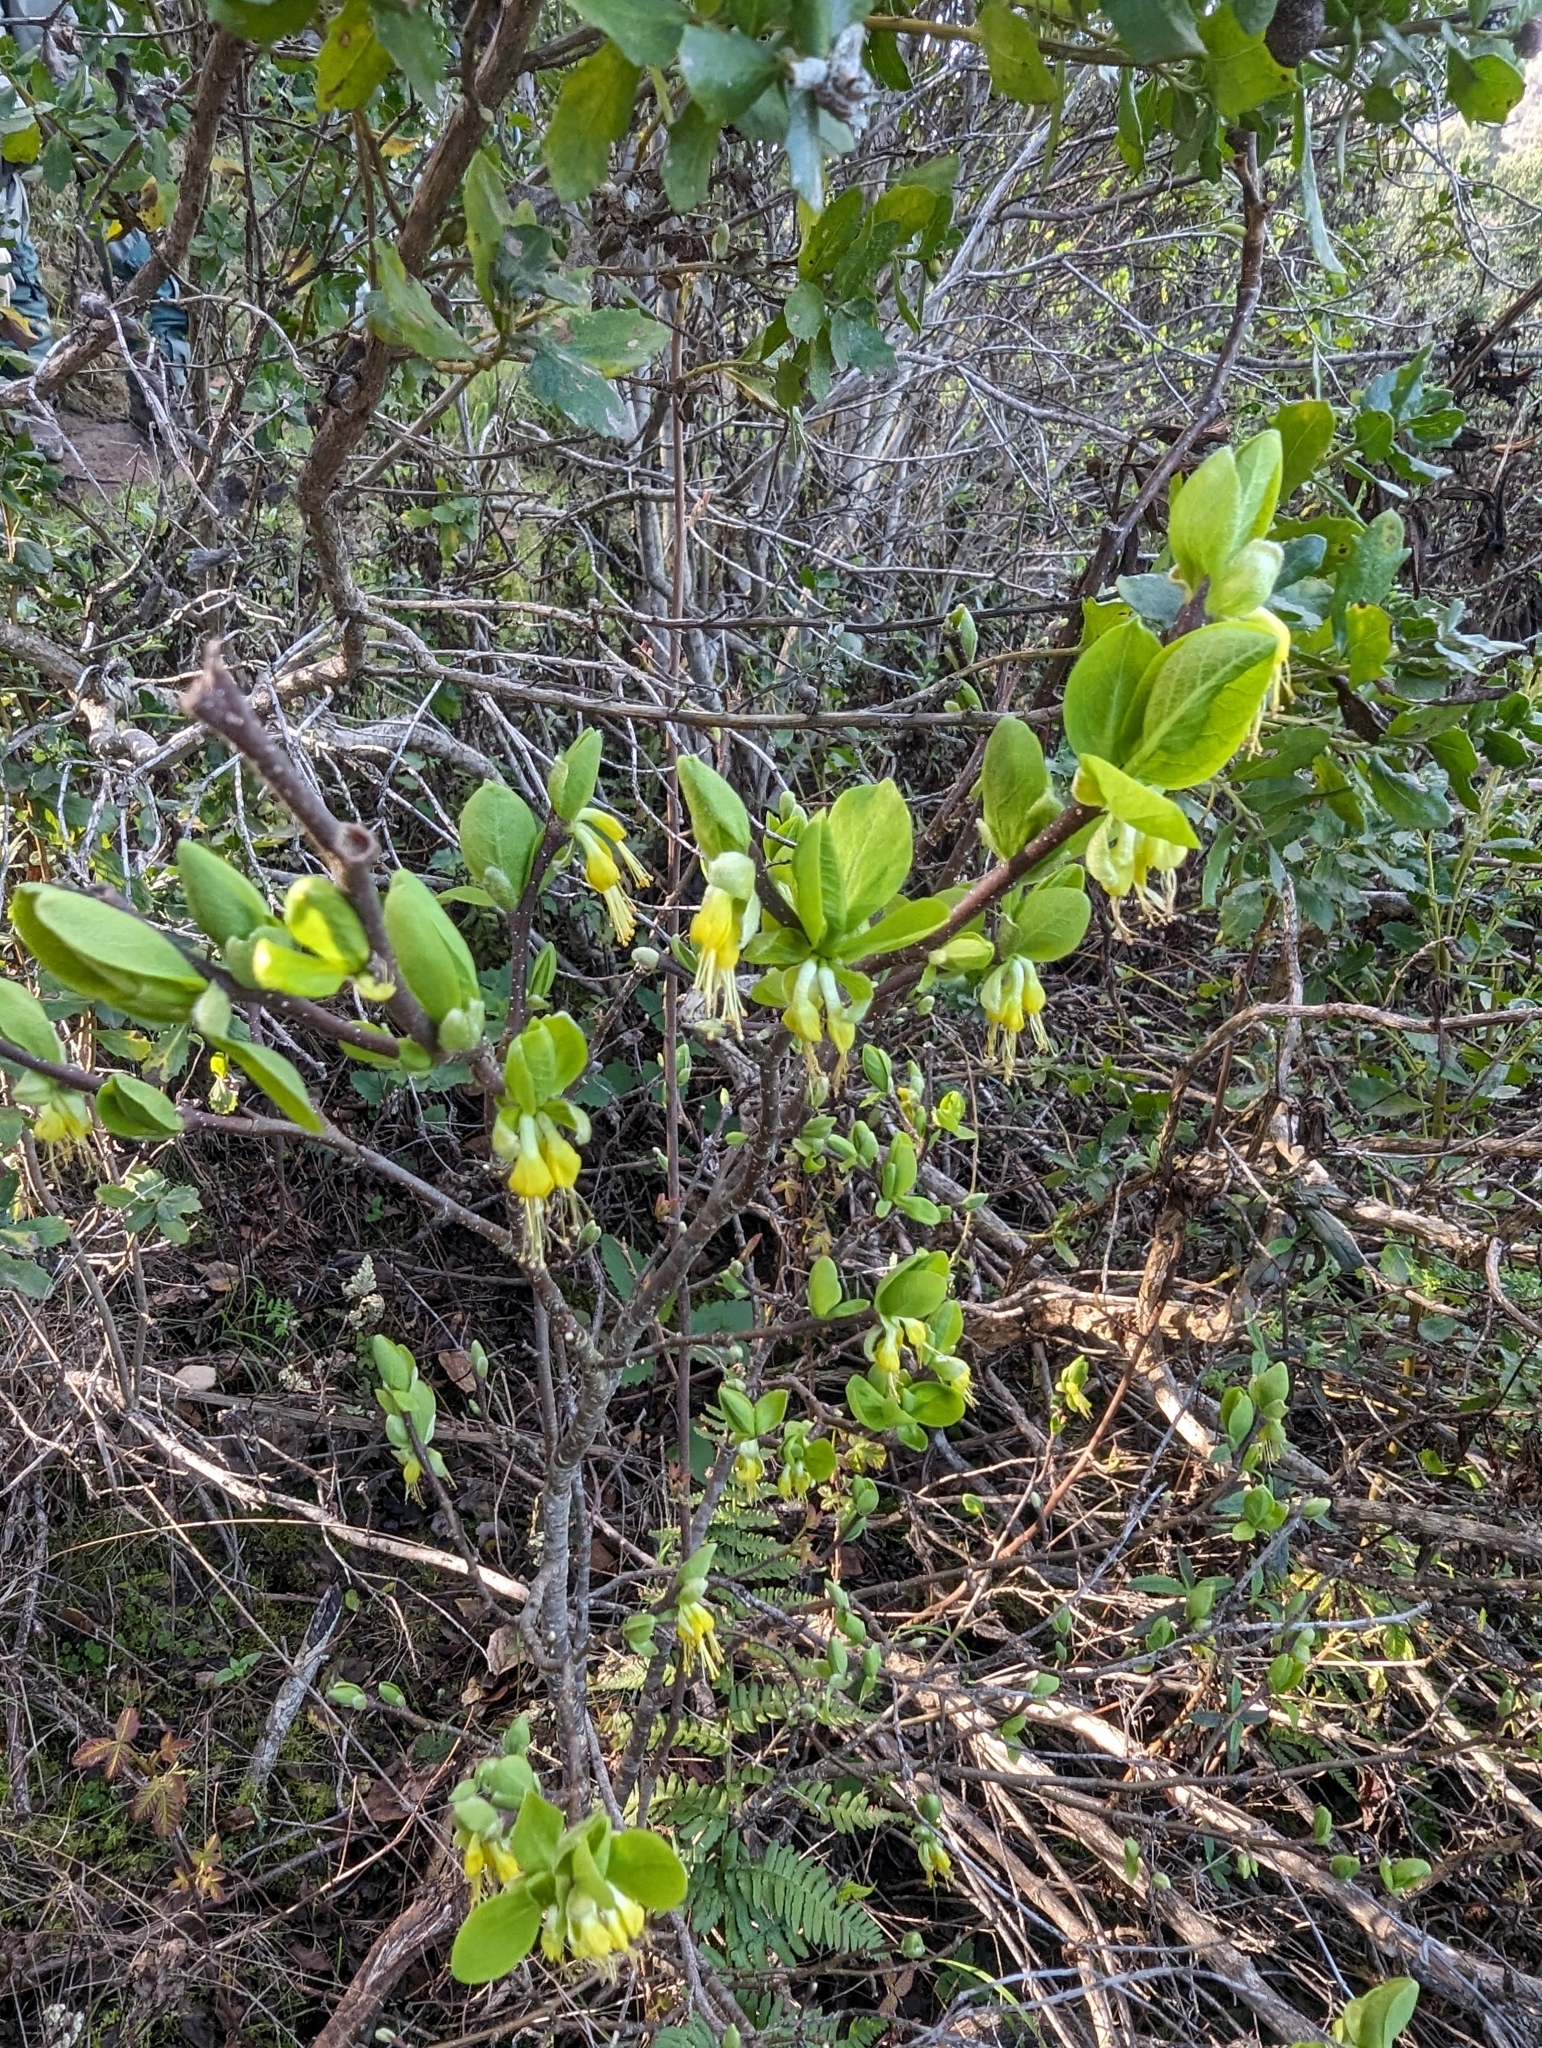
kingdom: Plantae
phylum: Tracheophyta
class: Magnoliopsida
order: Malvales
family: Thymelaeaceae
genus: Dirca
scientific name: Dirca occidentalis
